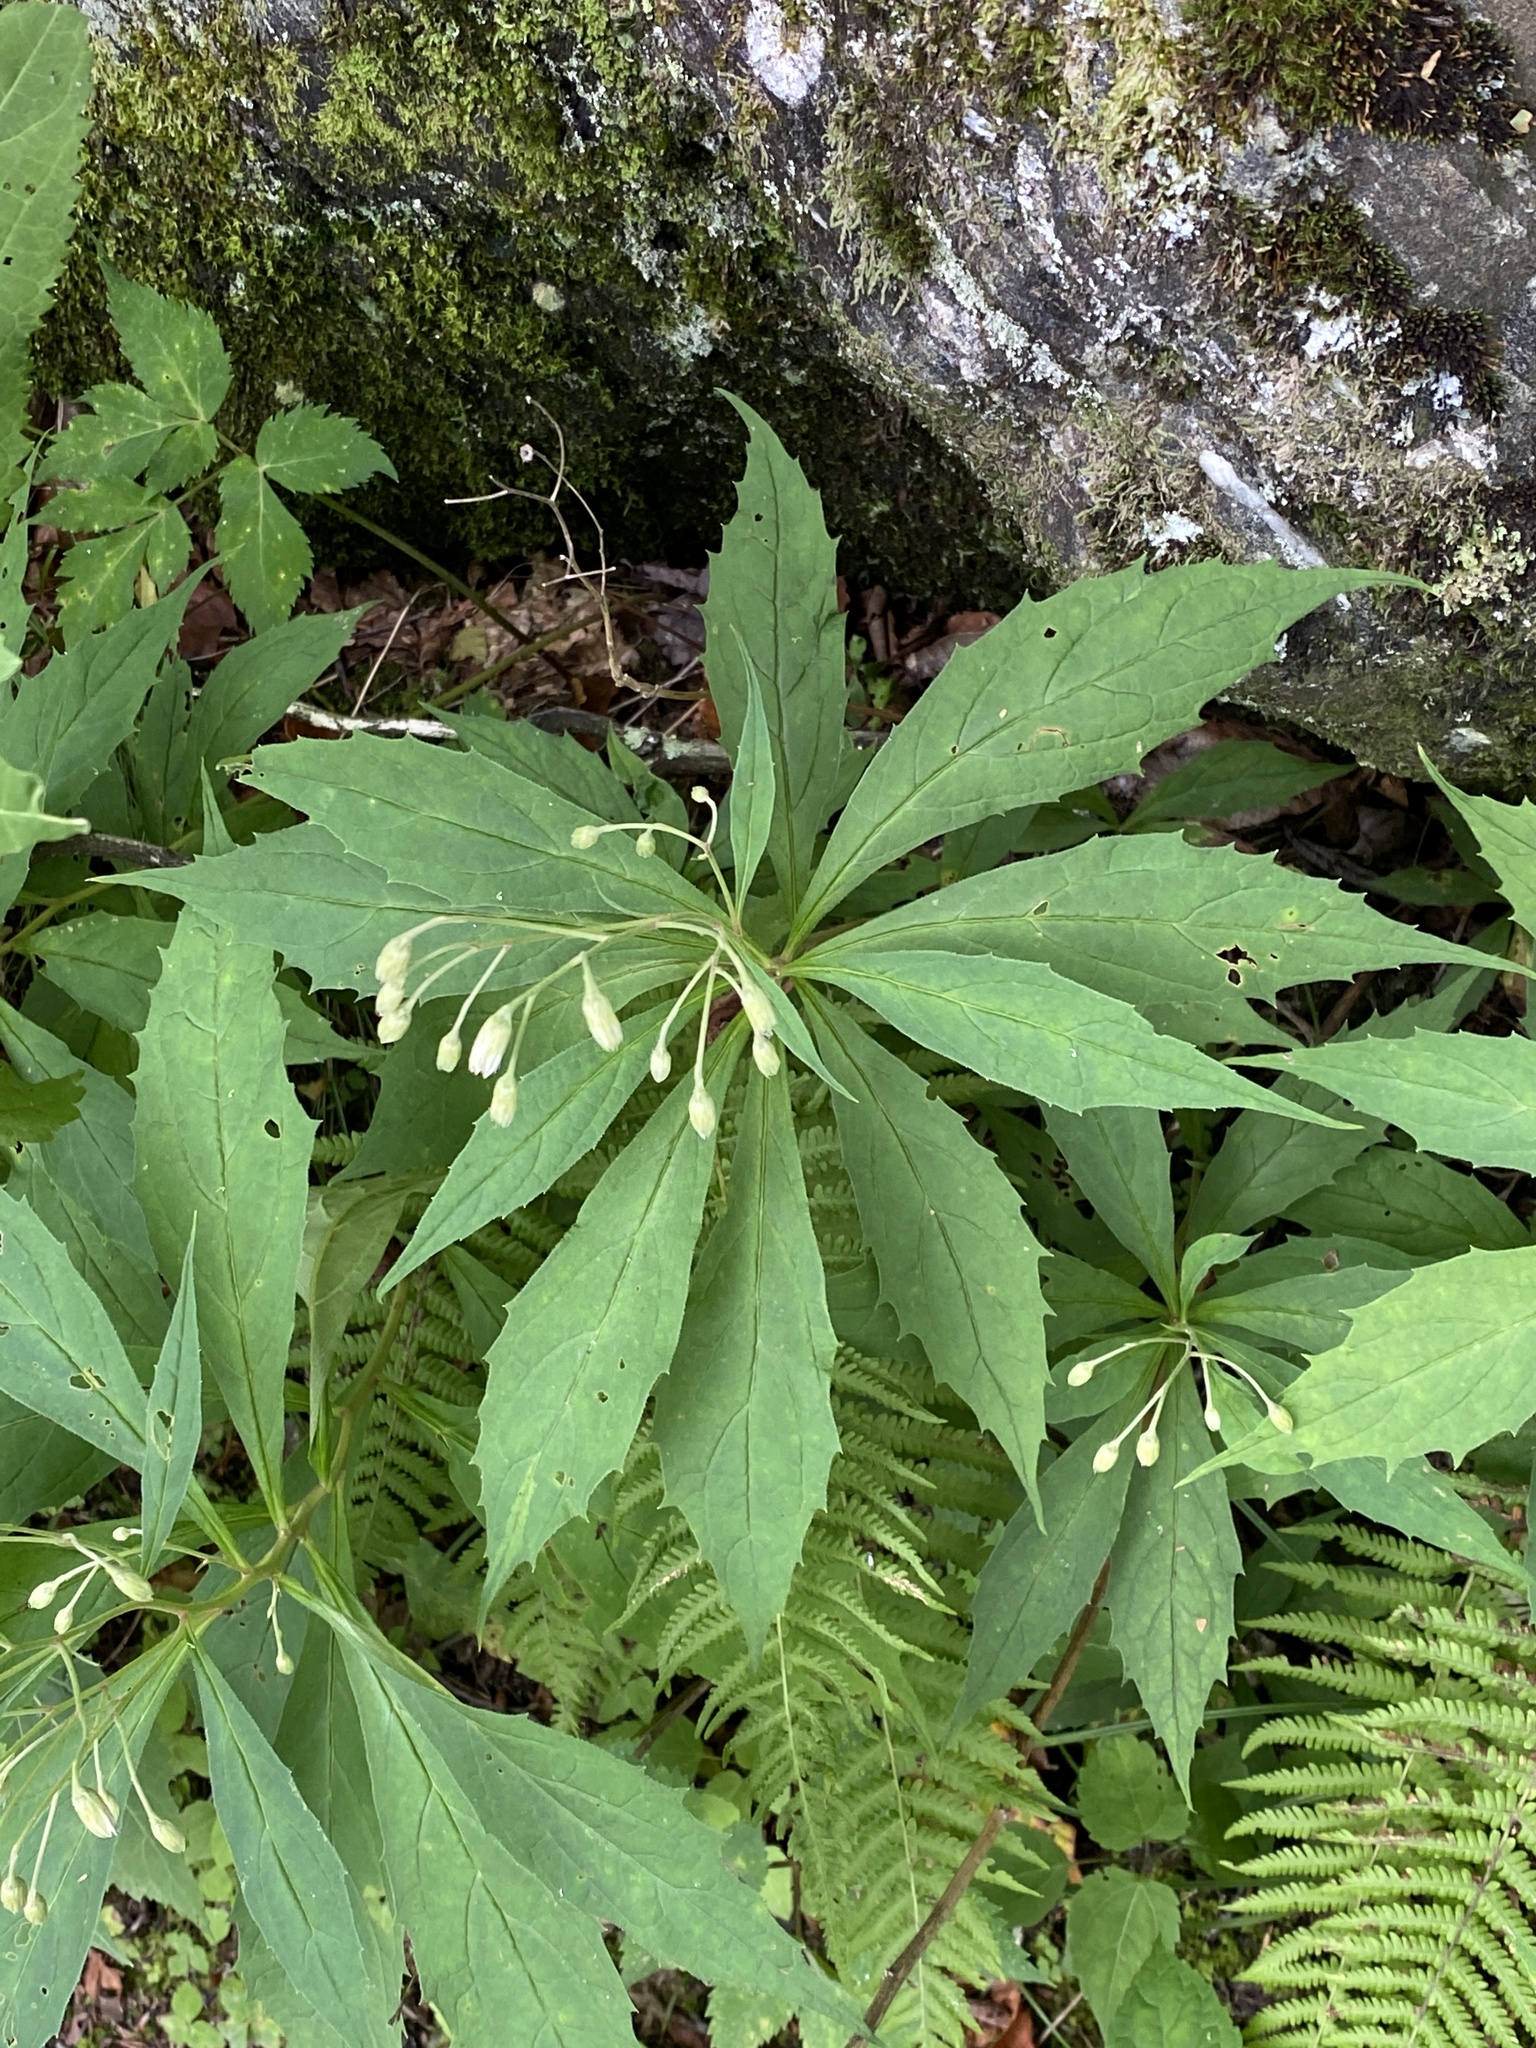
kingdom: Plantae
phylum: Tracheophyta
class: Magnoliopsida
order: Asterales
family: Asteraceae
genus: Oclemena
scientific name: Oclemena acuminata
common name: Mountain aster
